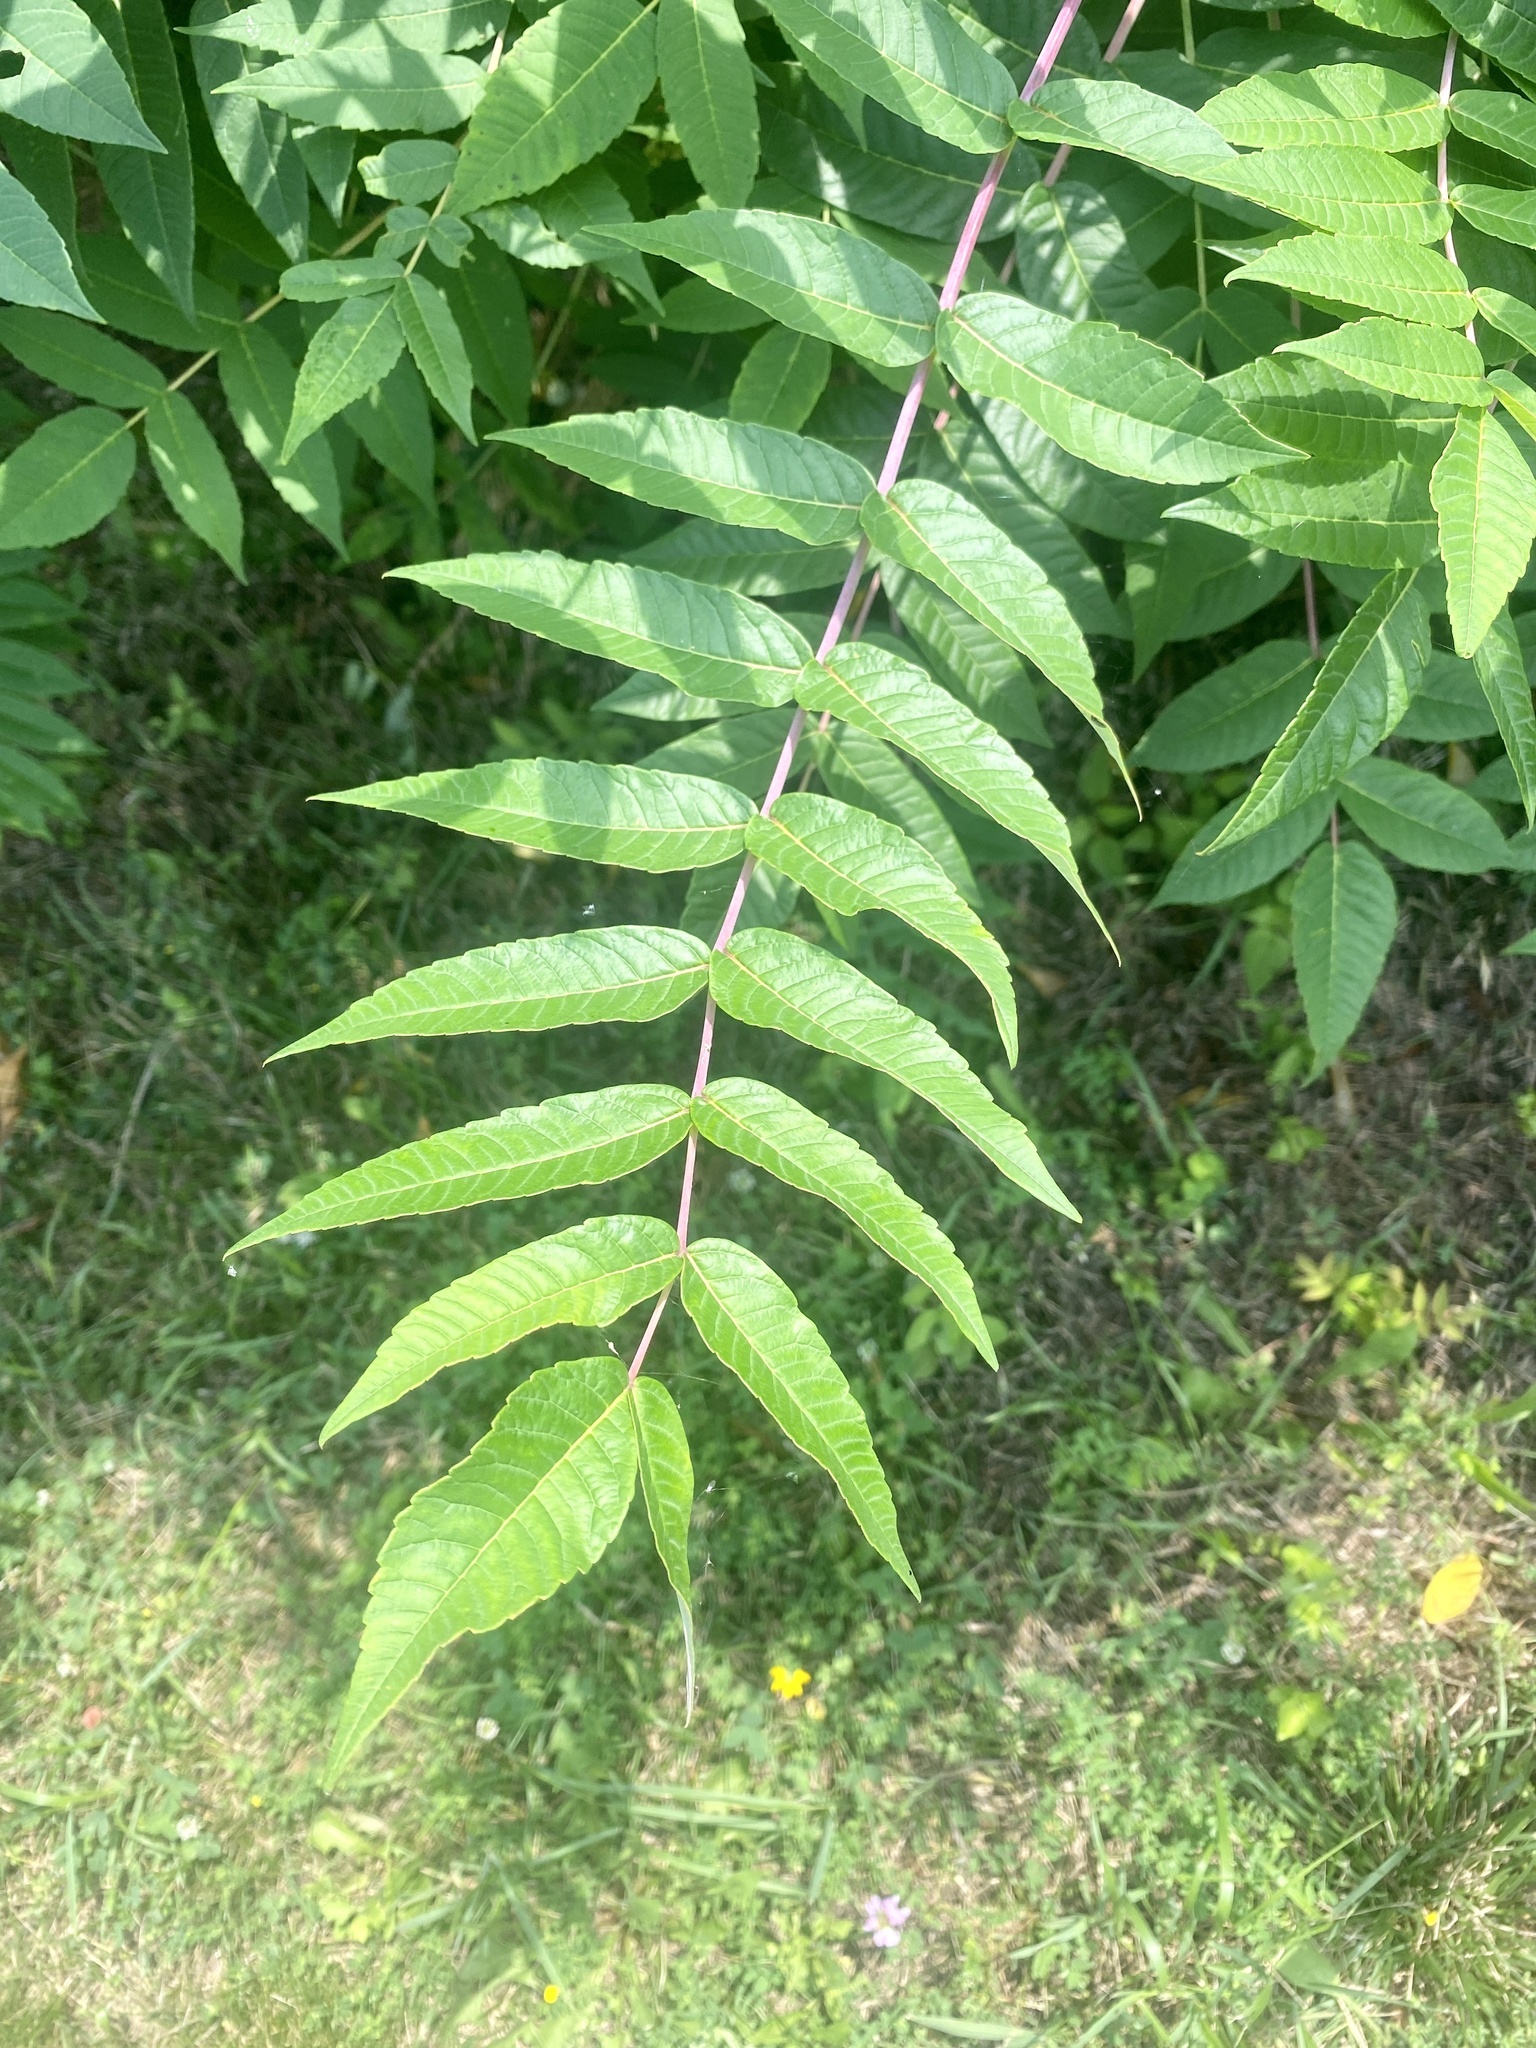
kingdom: Plantae
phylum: Tracheophyta
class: Magnoliopsida
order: Sapindales
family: Anacardiaceae
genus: Rhus
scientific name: Rhus glabra
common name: Scarlet sumac
